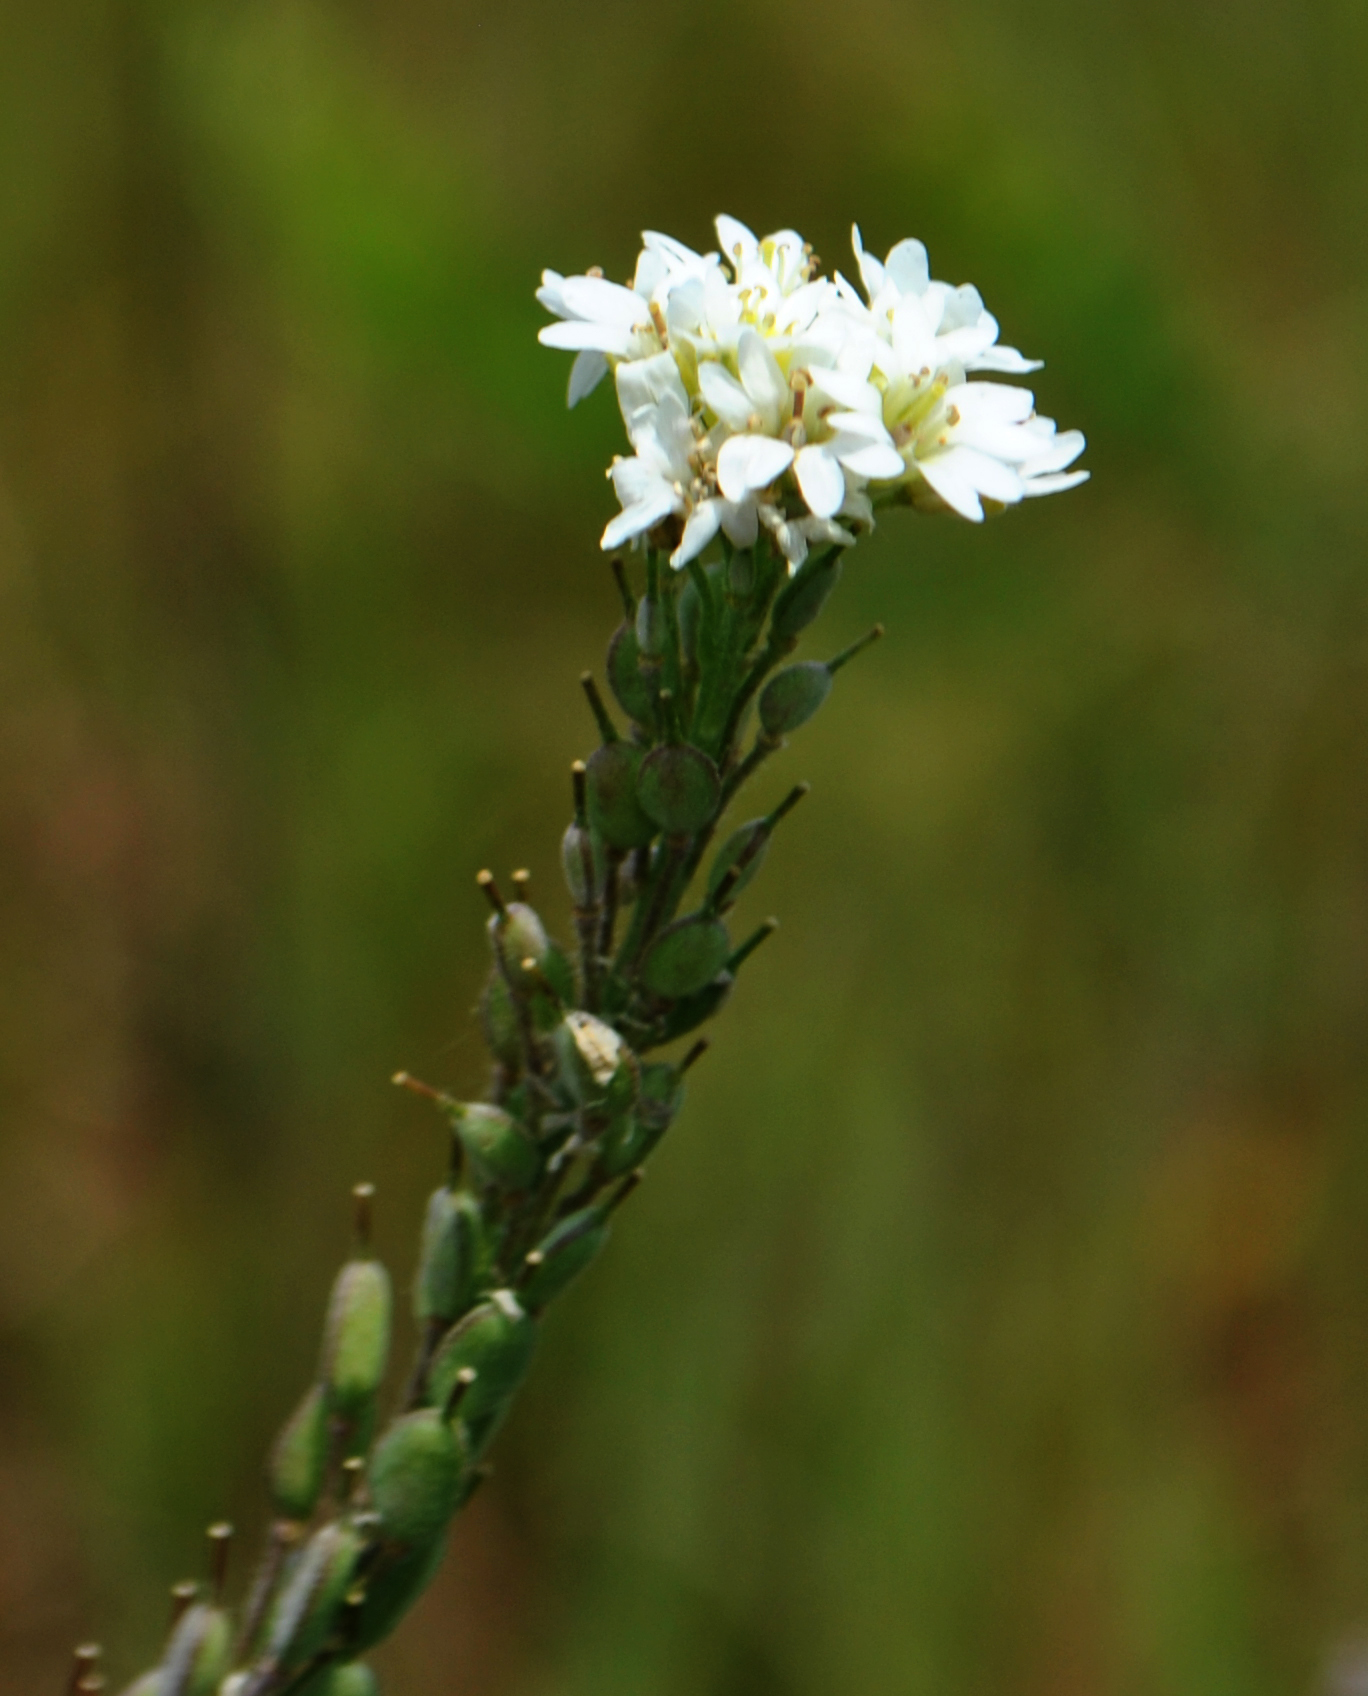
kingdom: Plantae
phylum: Tracheophyta
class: Magnoliopsida
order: Brassicales
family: Brassicaceae
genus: Berteroa
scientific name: Berteroa incana
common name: Hoary alison
